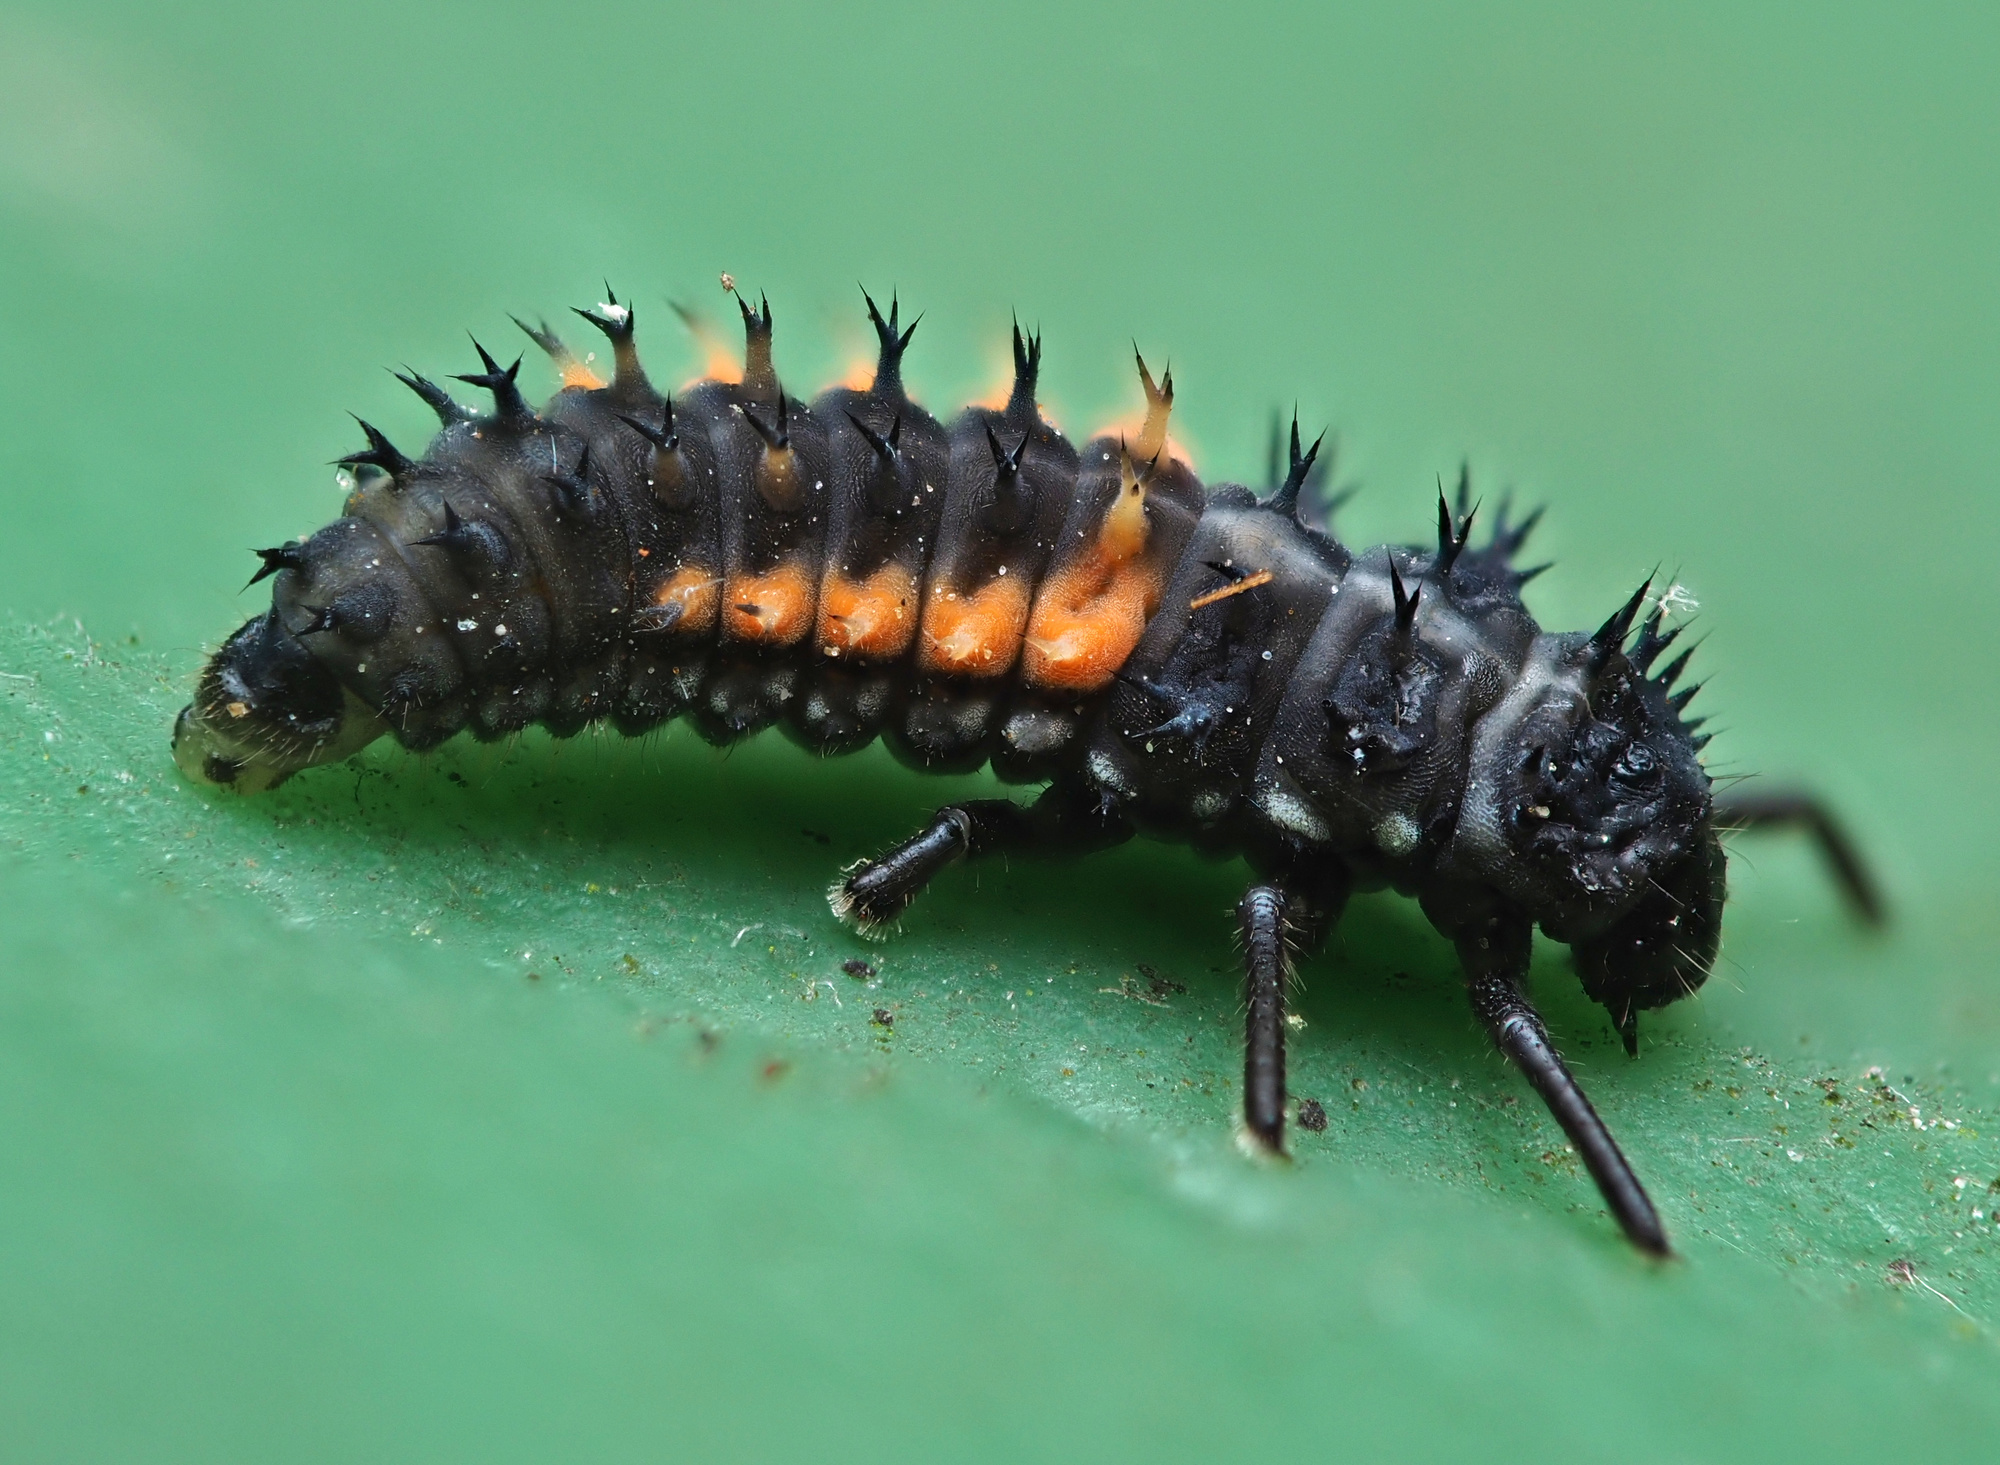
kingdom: Animalia
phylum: Arthropoda
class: Insecta
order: Coleoptera
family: Coccinellidae
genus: Harmonia
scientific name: Harmonia axyridis
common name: Harlequin ladybird
